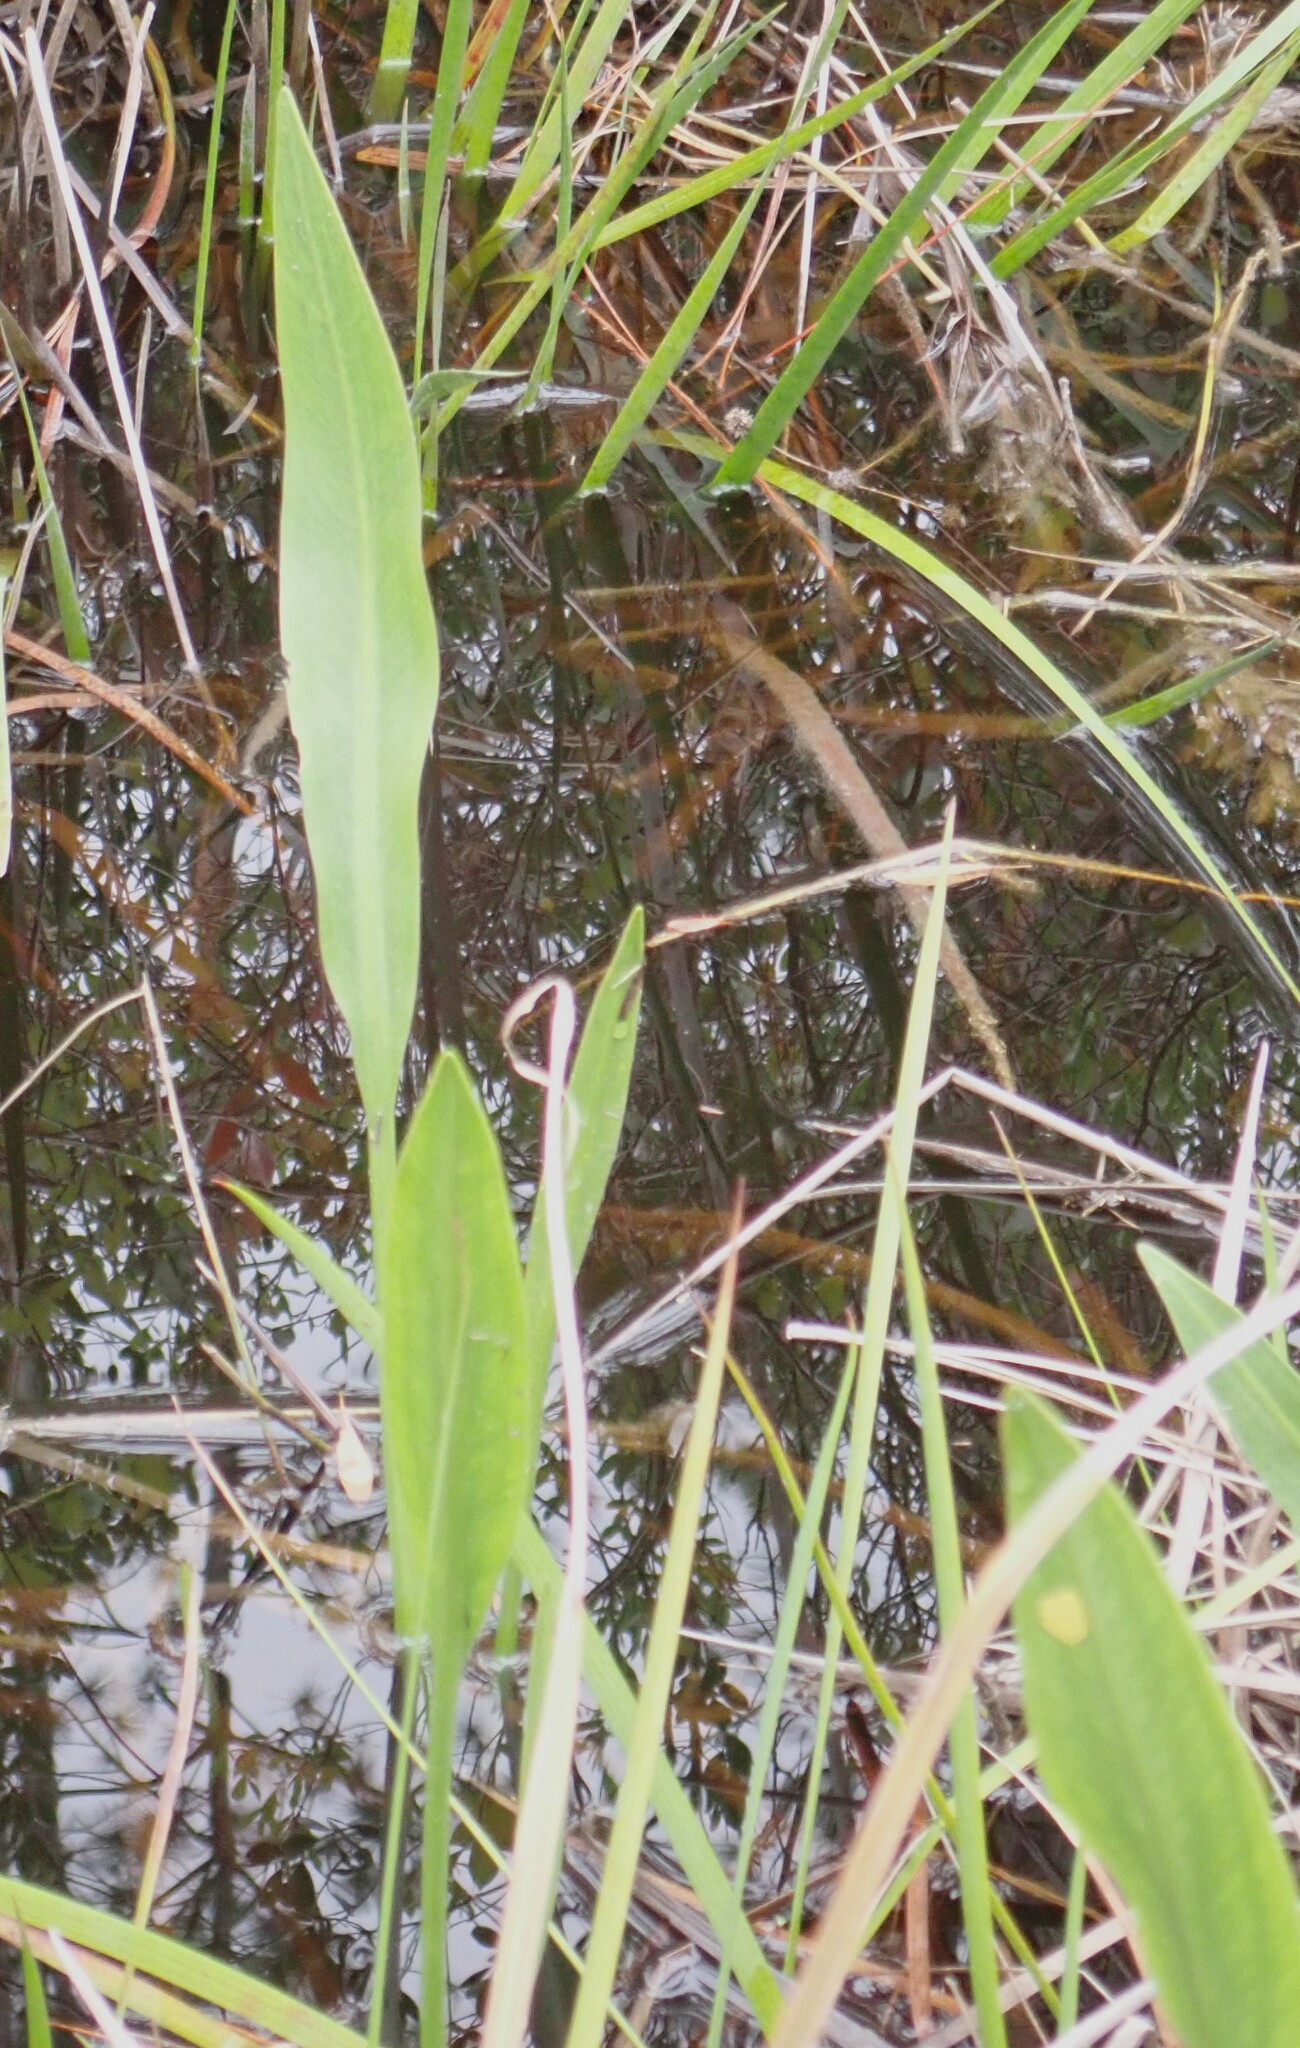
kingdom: Plantae
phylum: Tracheophyta
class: Liliopsida
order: Alismatales
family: Alismataceae
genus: Sagittaria
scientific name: Sagittaria lancifolia
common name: Lance-leaf arrowhead
